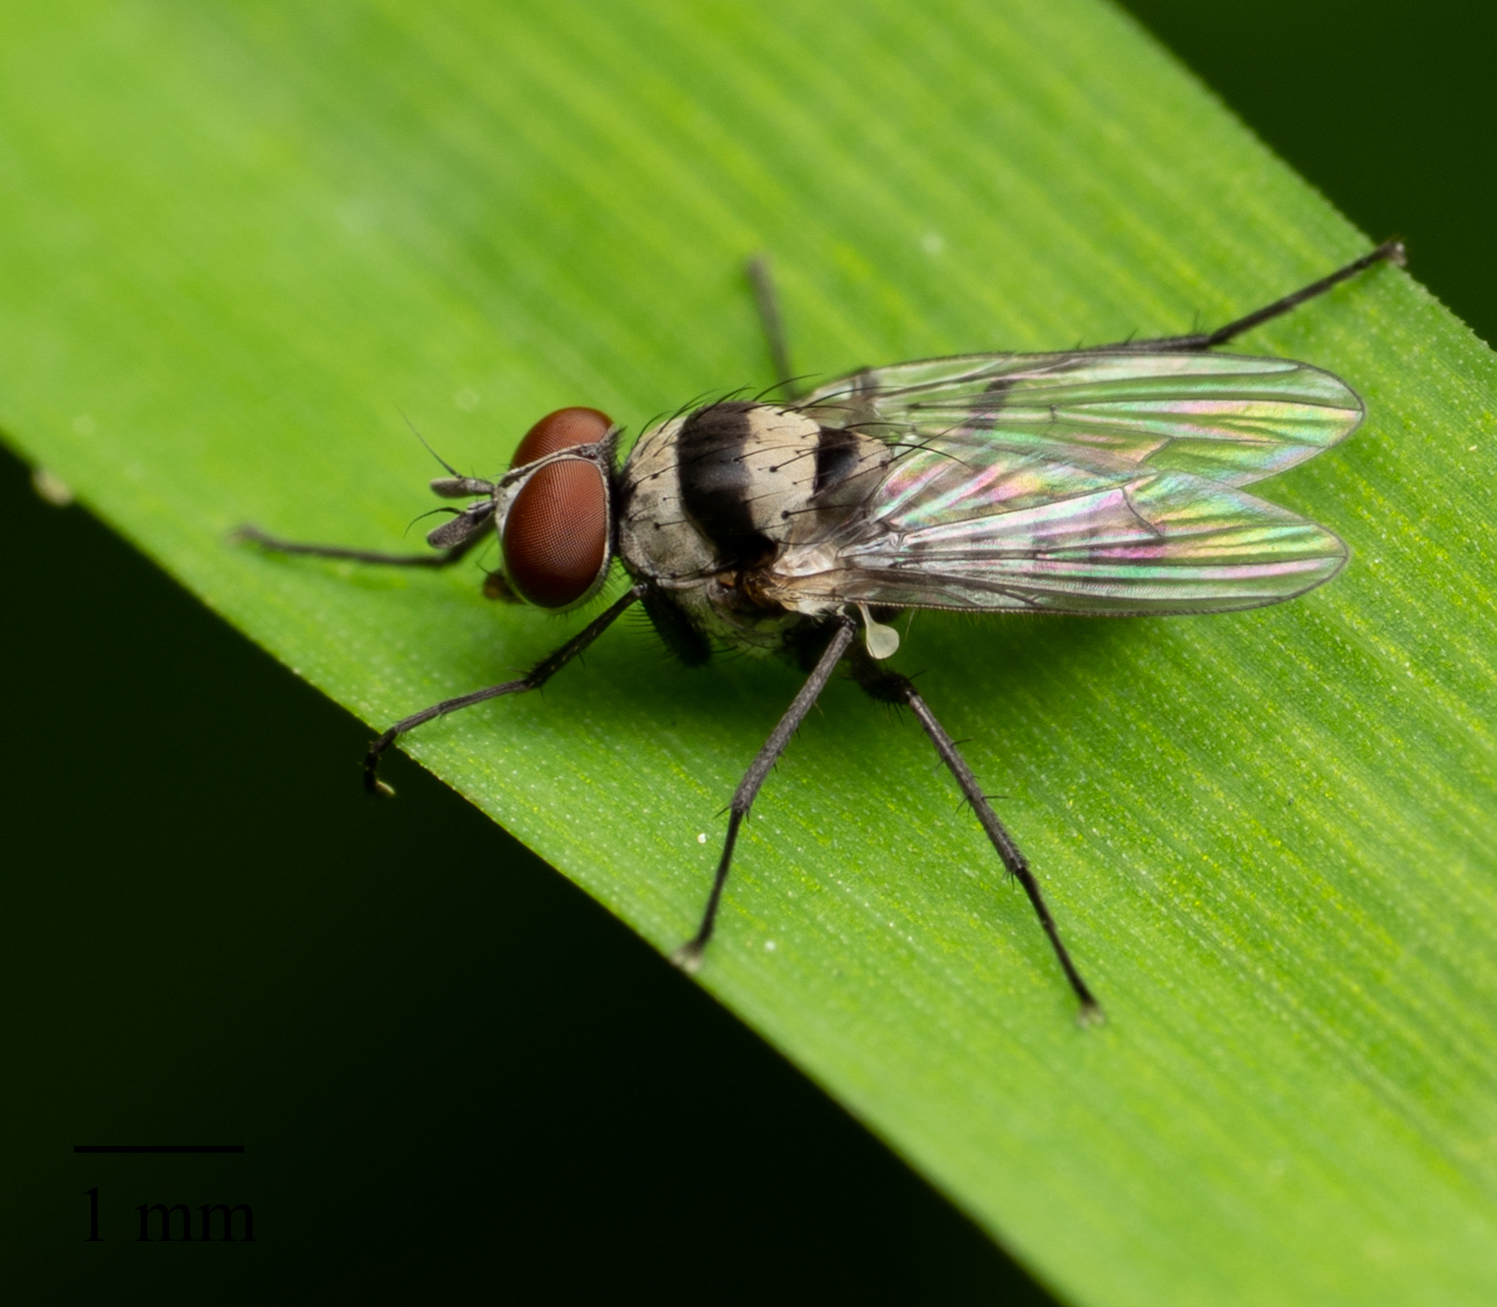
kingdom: Animalia
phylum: Arthropoda
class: Insecta
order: Diptera
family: Anthomyiidae
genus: Anthomyia
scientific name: Anthomyia illocata
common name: Fly
